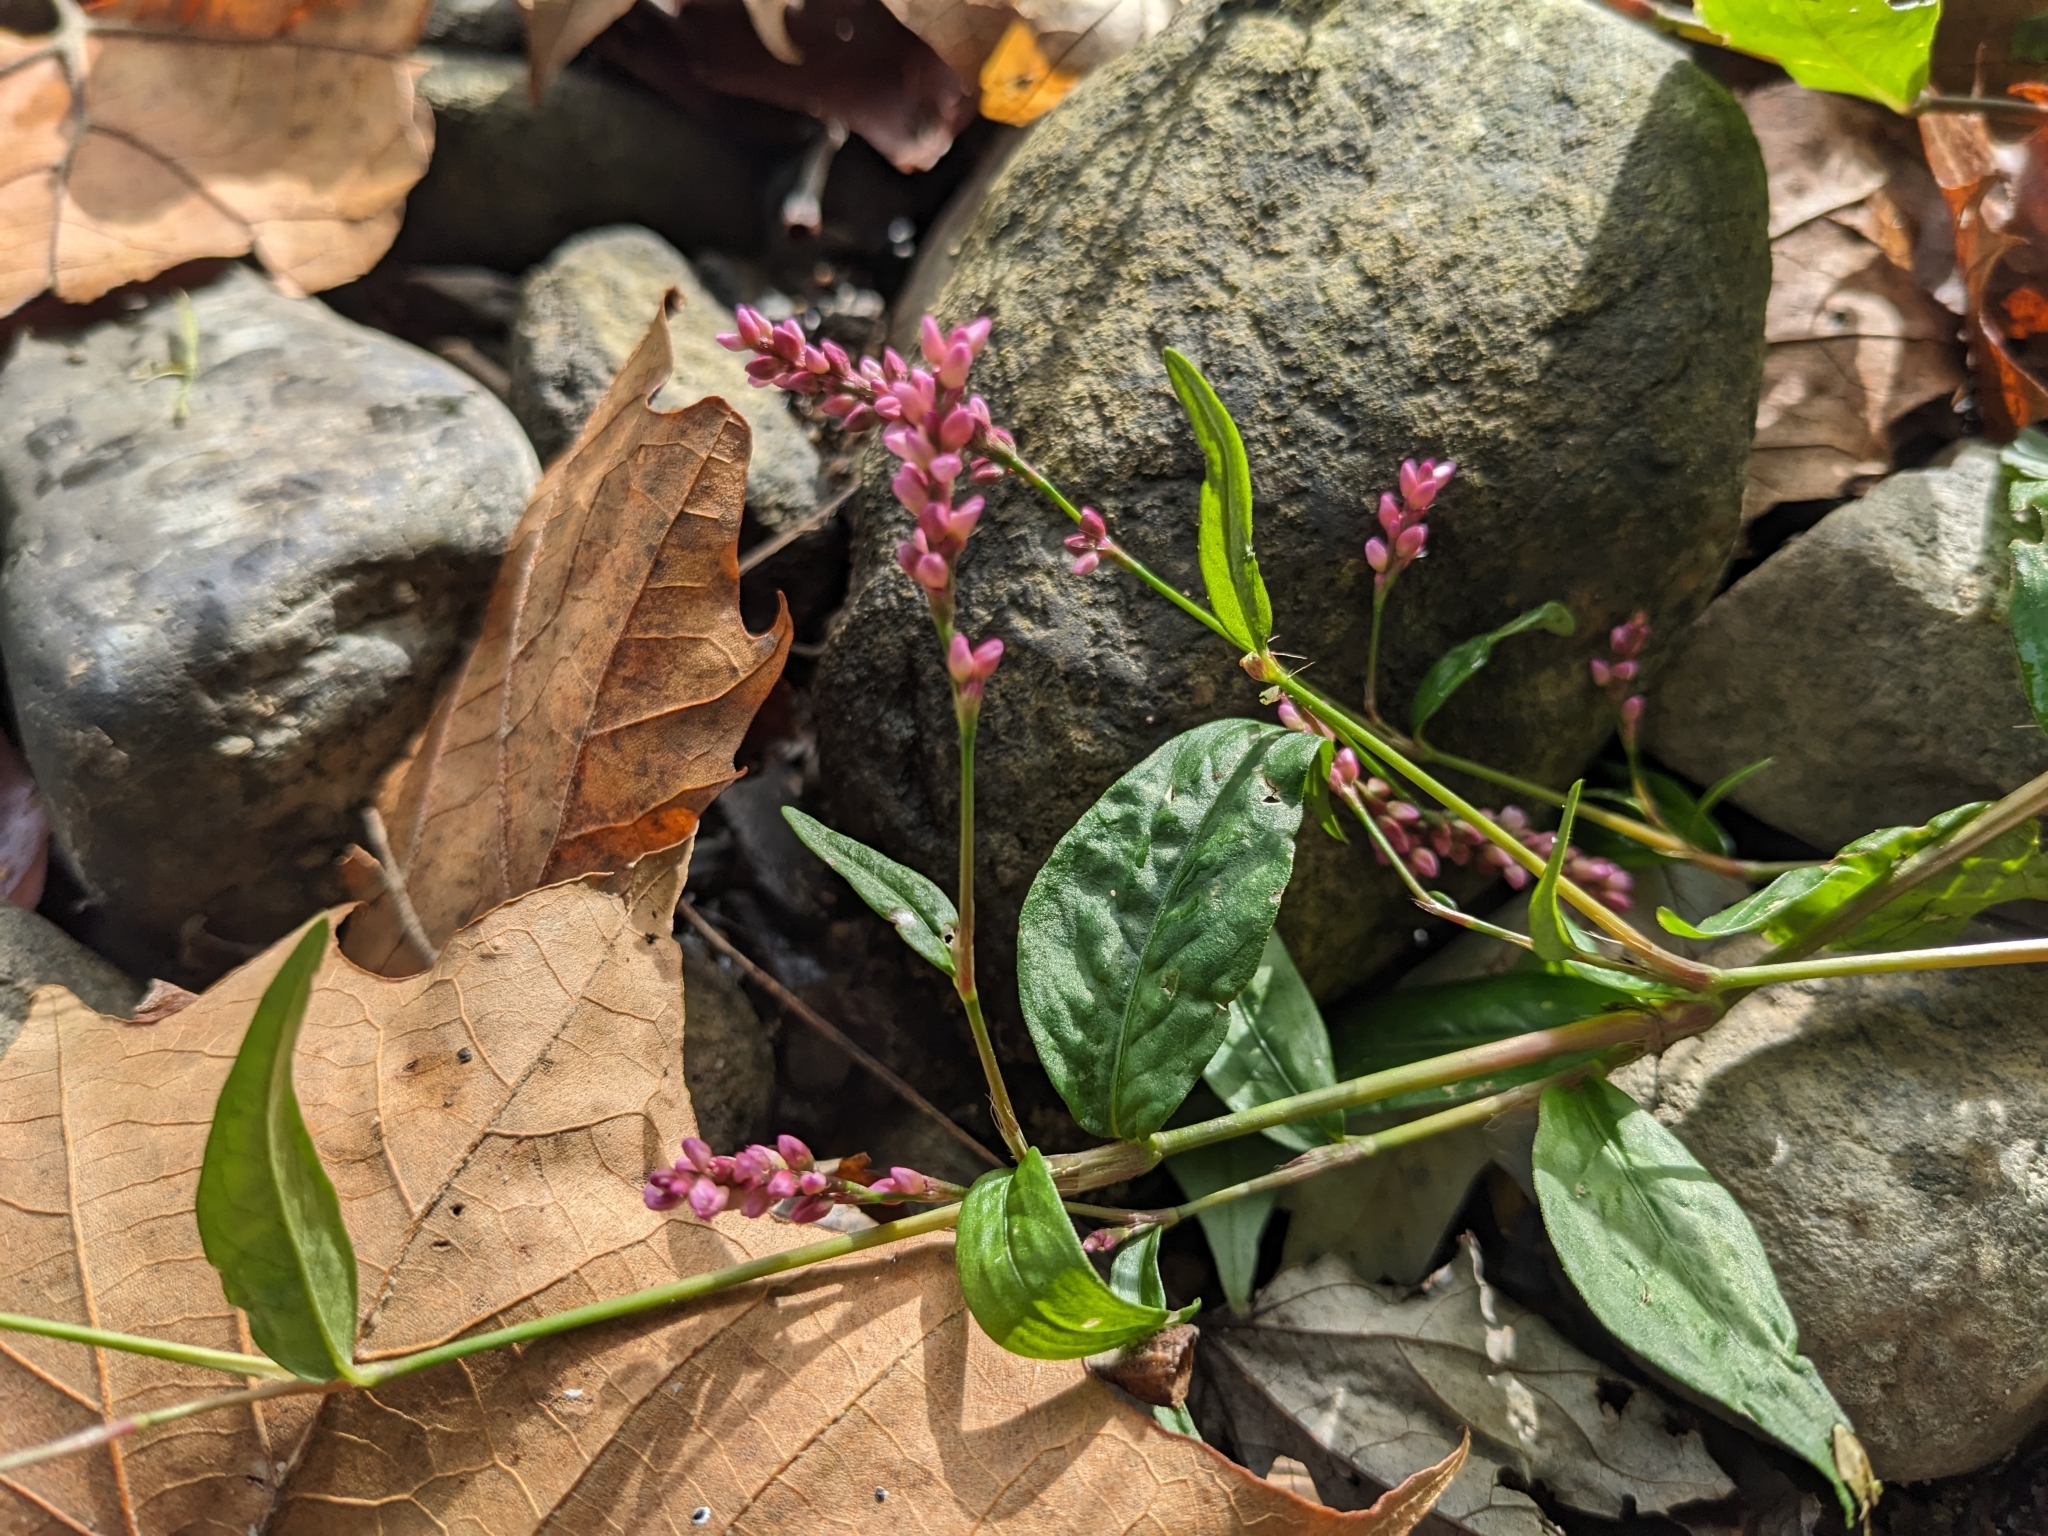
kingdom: Plantae
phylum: Tracheophyta
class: Magnoliopsida
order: Caryophyllales
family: Polygonaceae
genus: Persicaria
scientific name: Persicaria longiseta
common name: Bristly lady's-thumb
